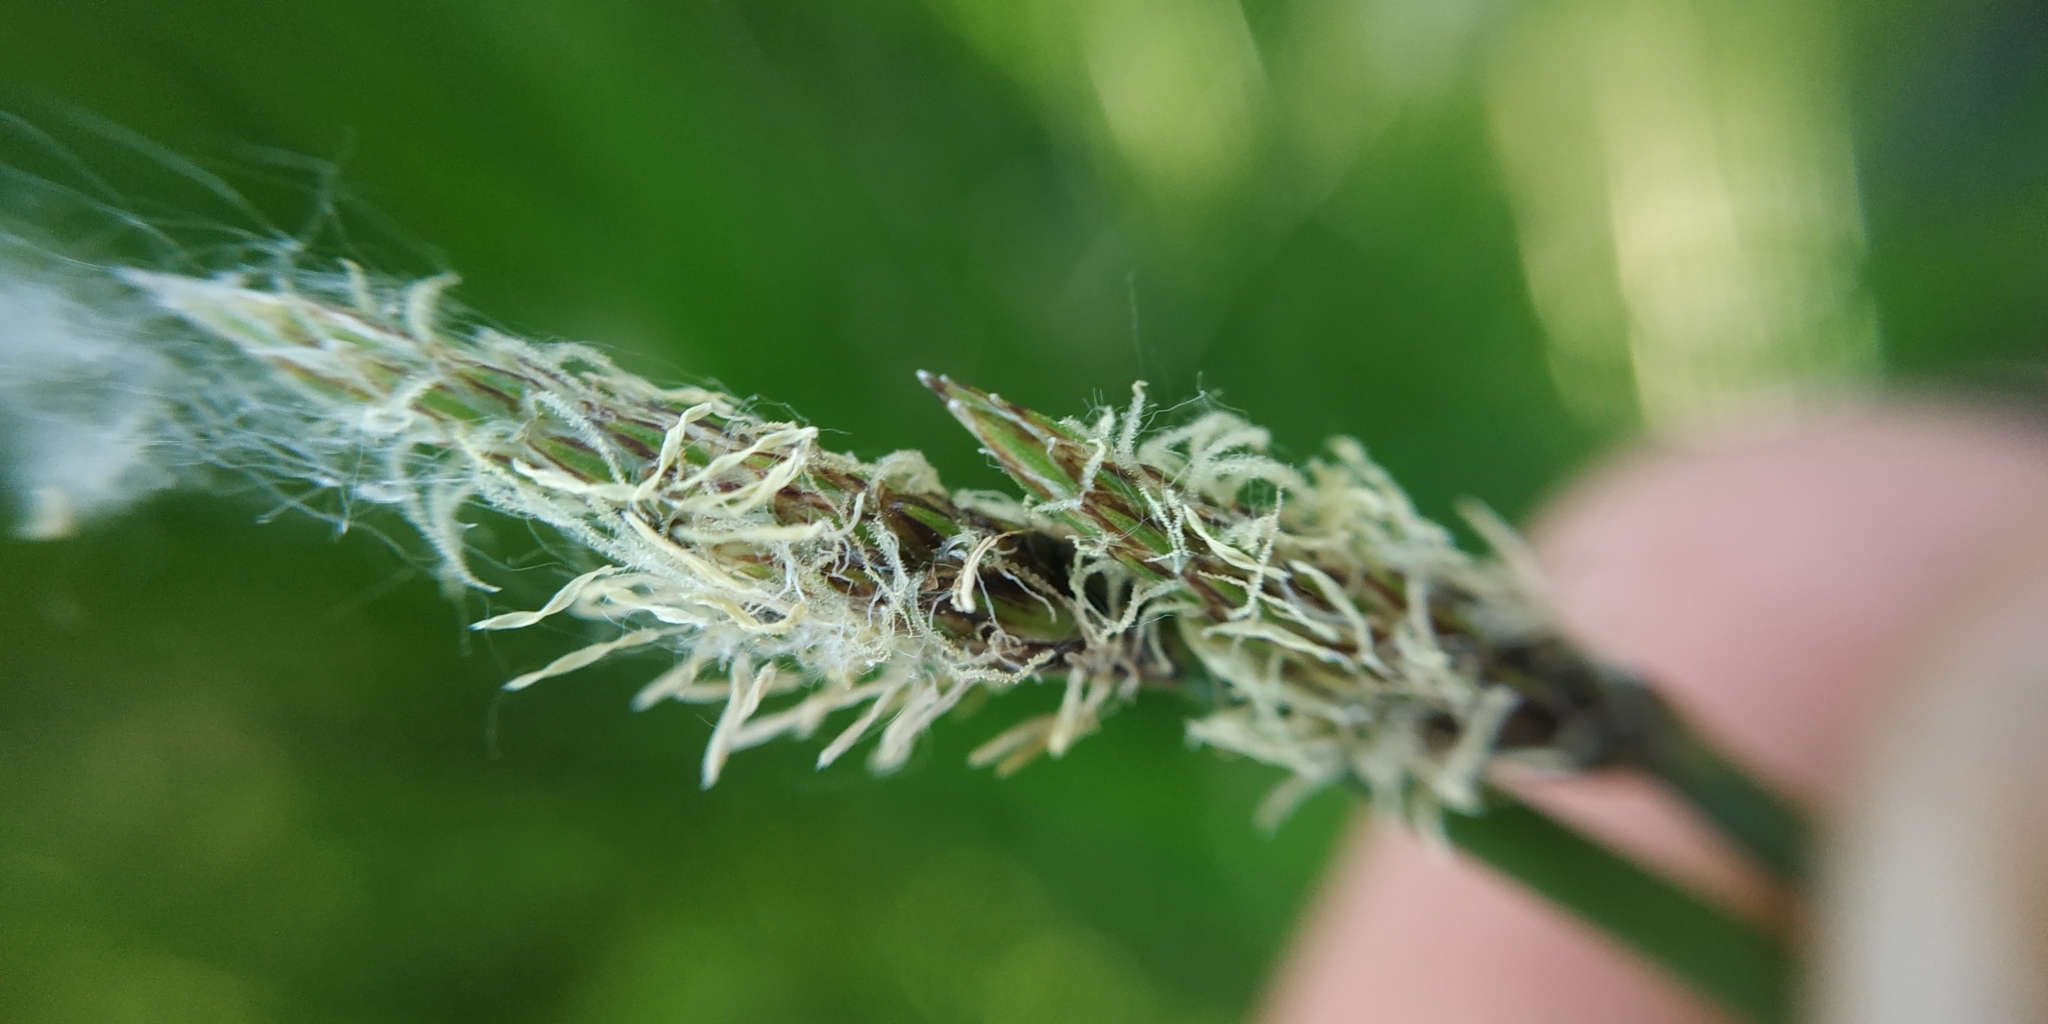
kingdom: Plantae
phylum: Tracheophyta
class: Liliopsida
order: Poales
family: Cyperaceae
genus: Eleocharis
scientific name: Eleocharis palustris
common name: Common spike-rush
